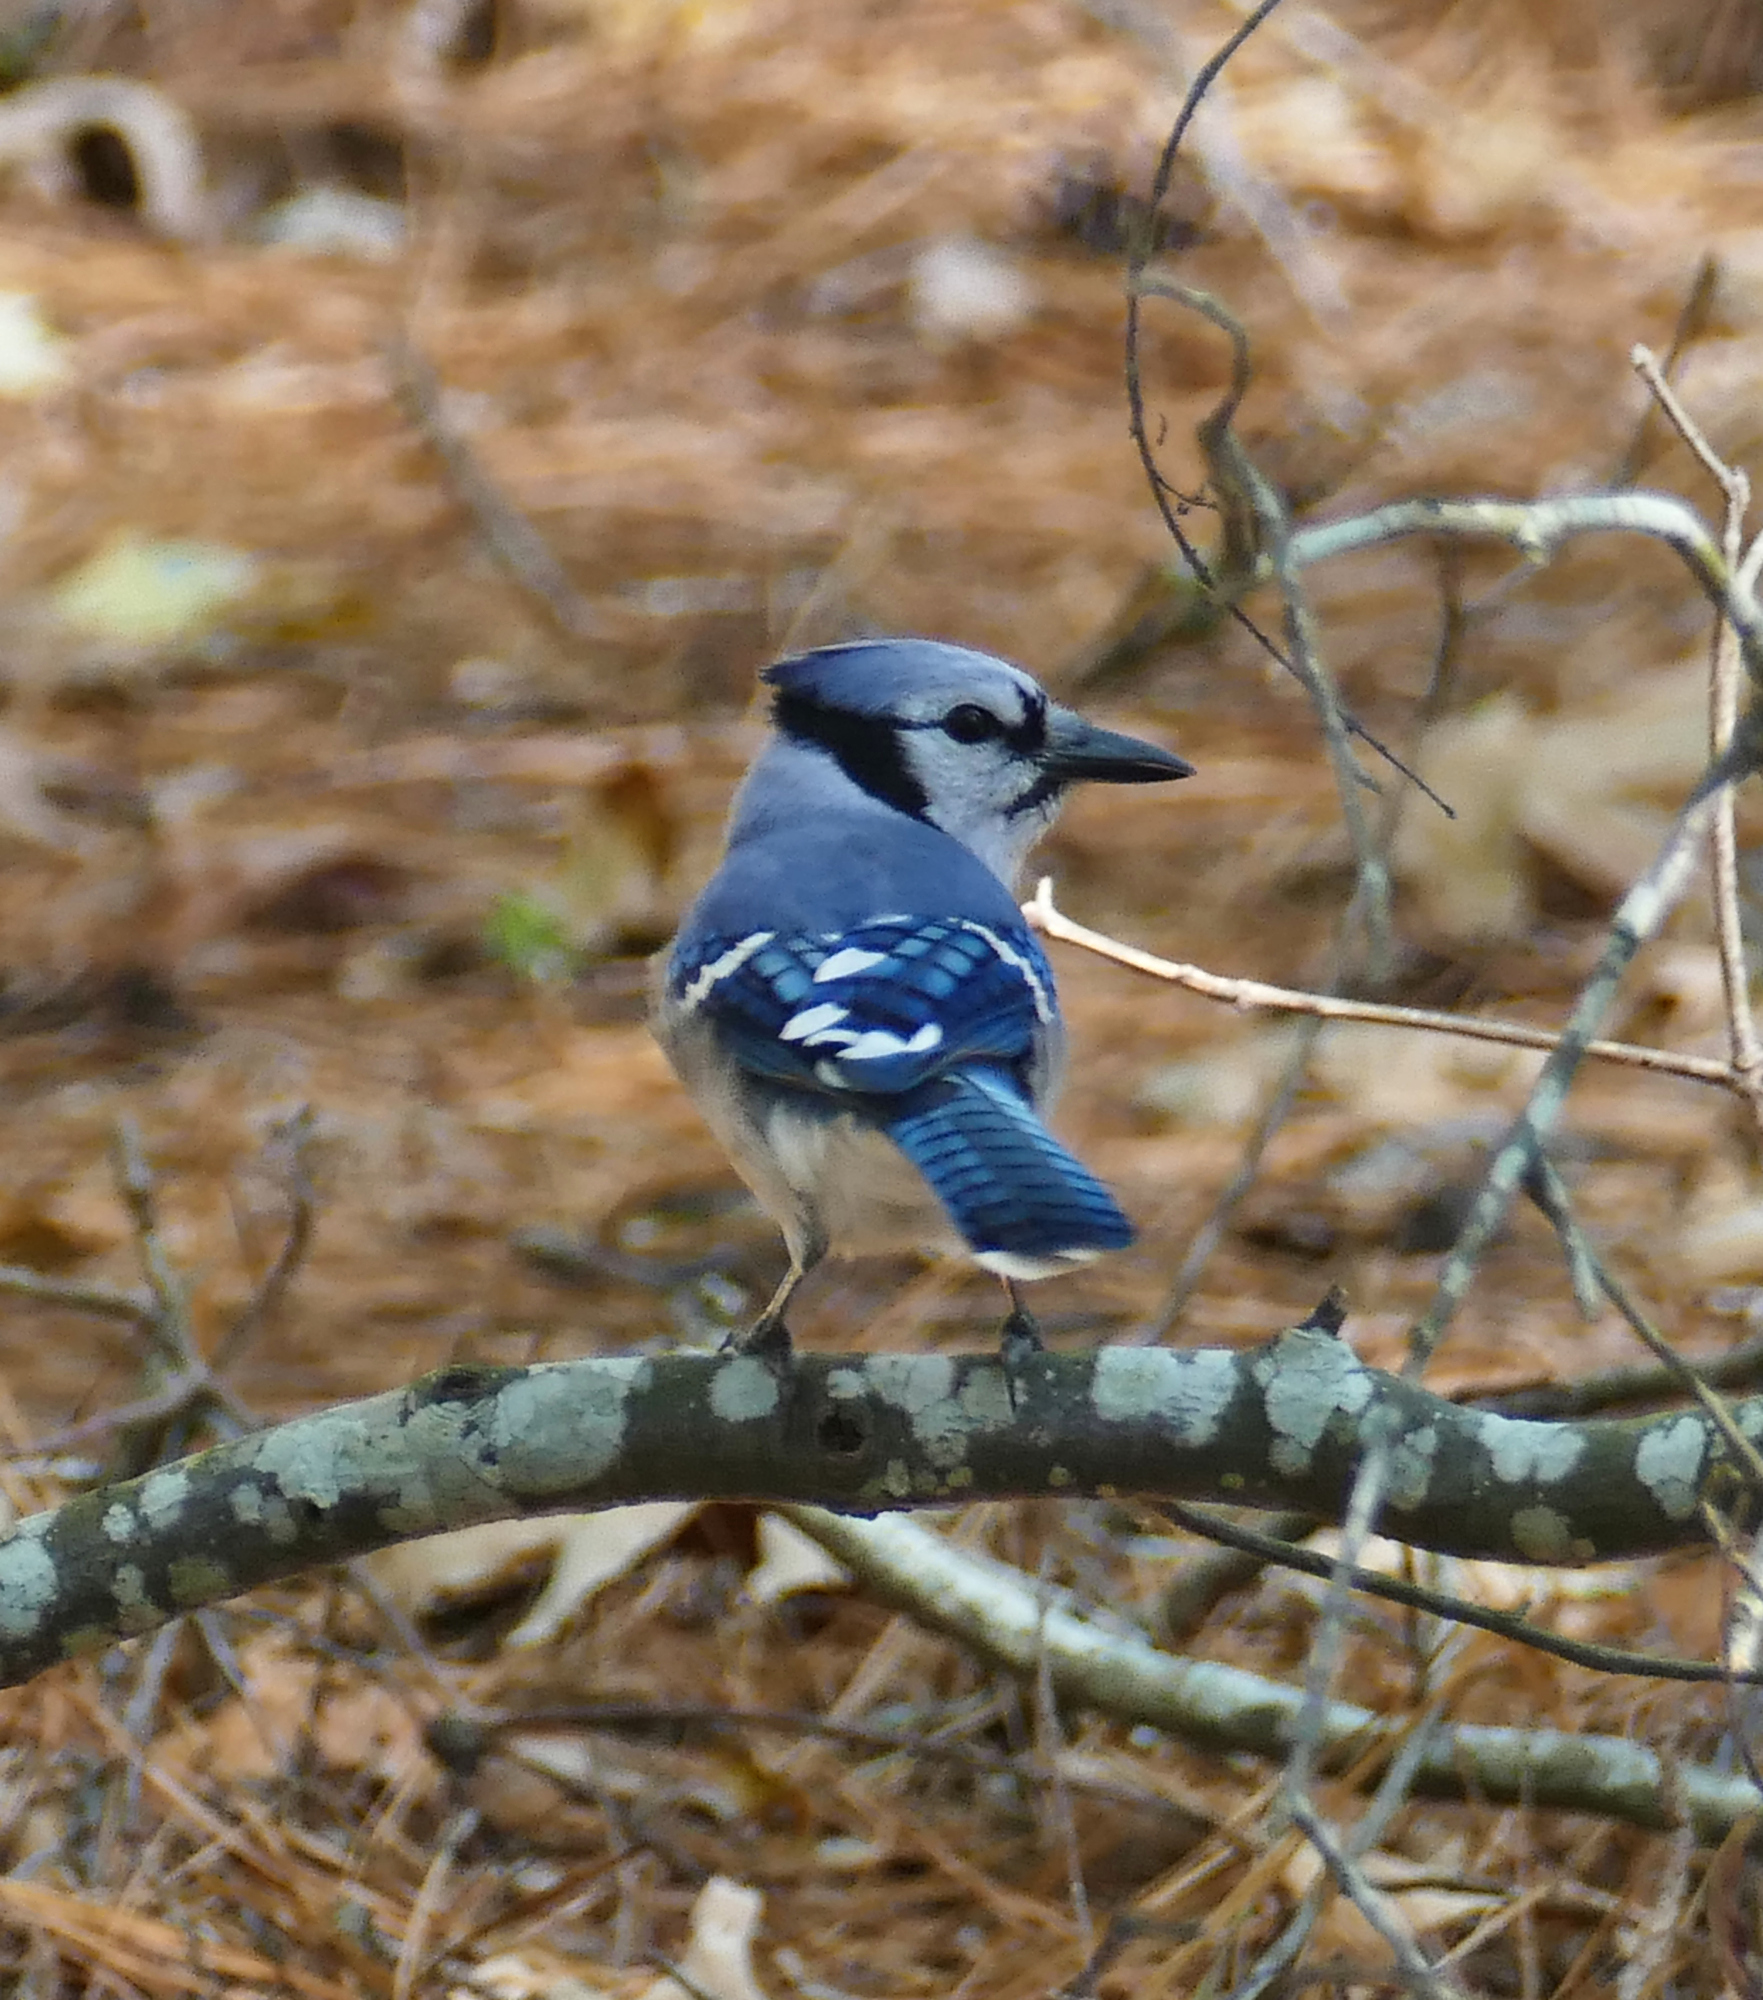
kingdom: Animalia
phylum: Chordata
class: Aves
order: Passeriformes
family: Corvidae
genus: Cyanocitta
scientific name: Cyanocitta cristata
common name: Blue jay
